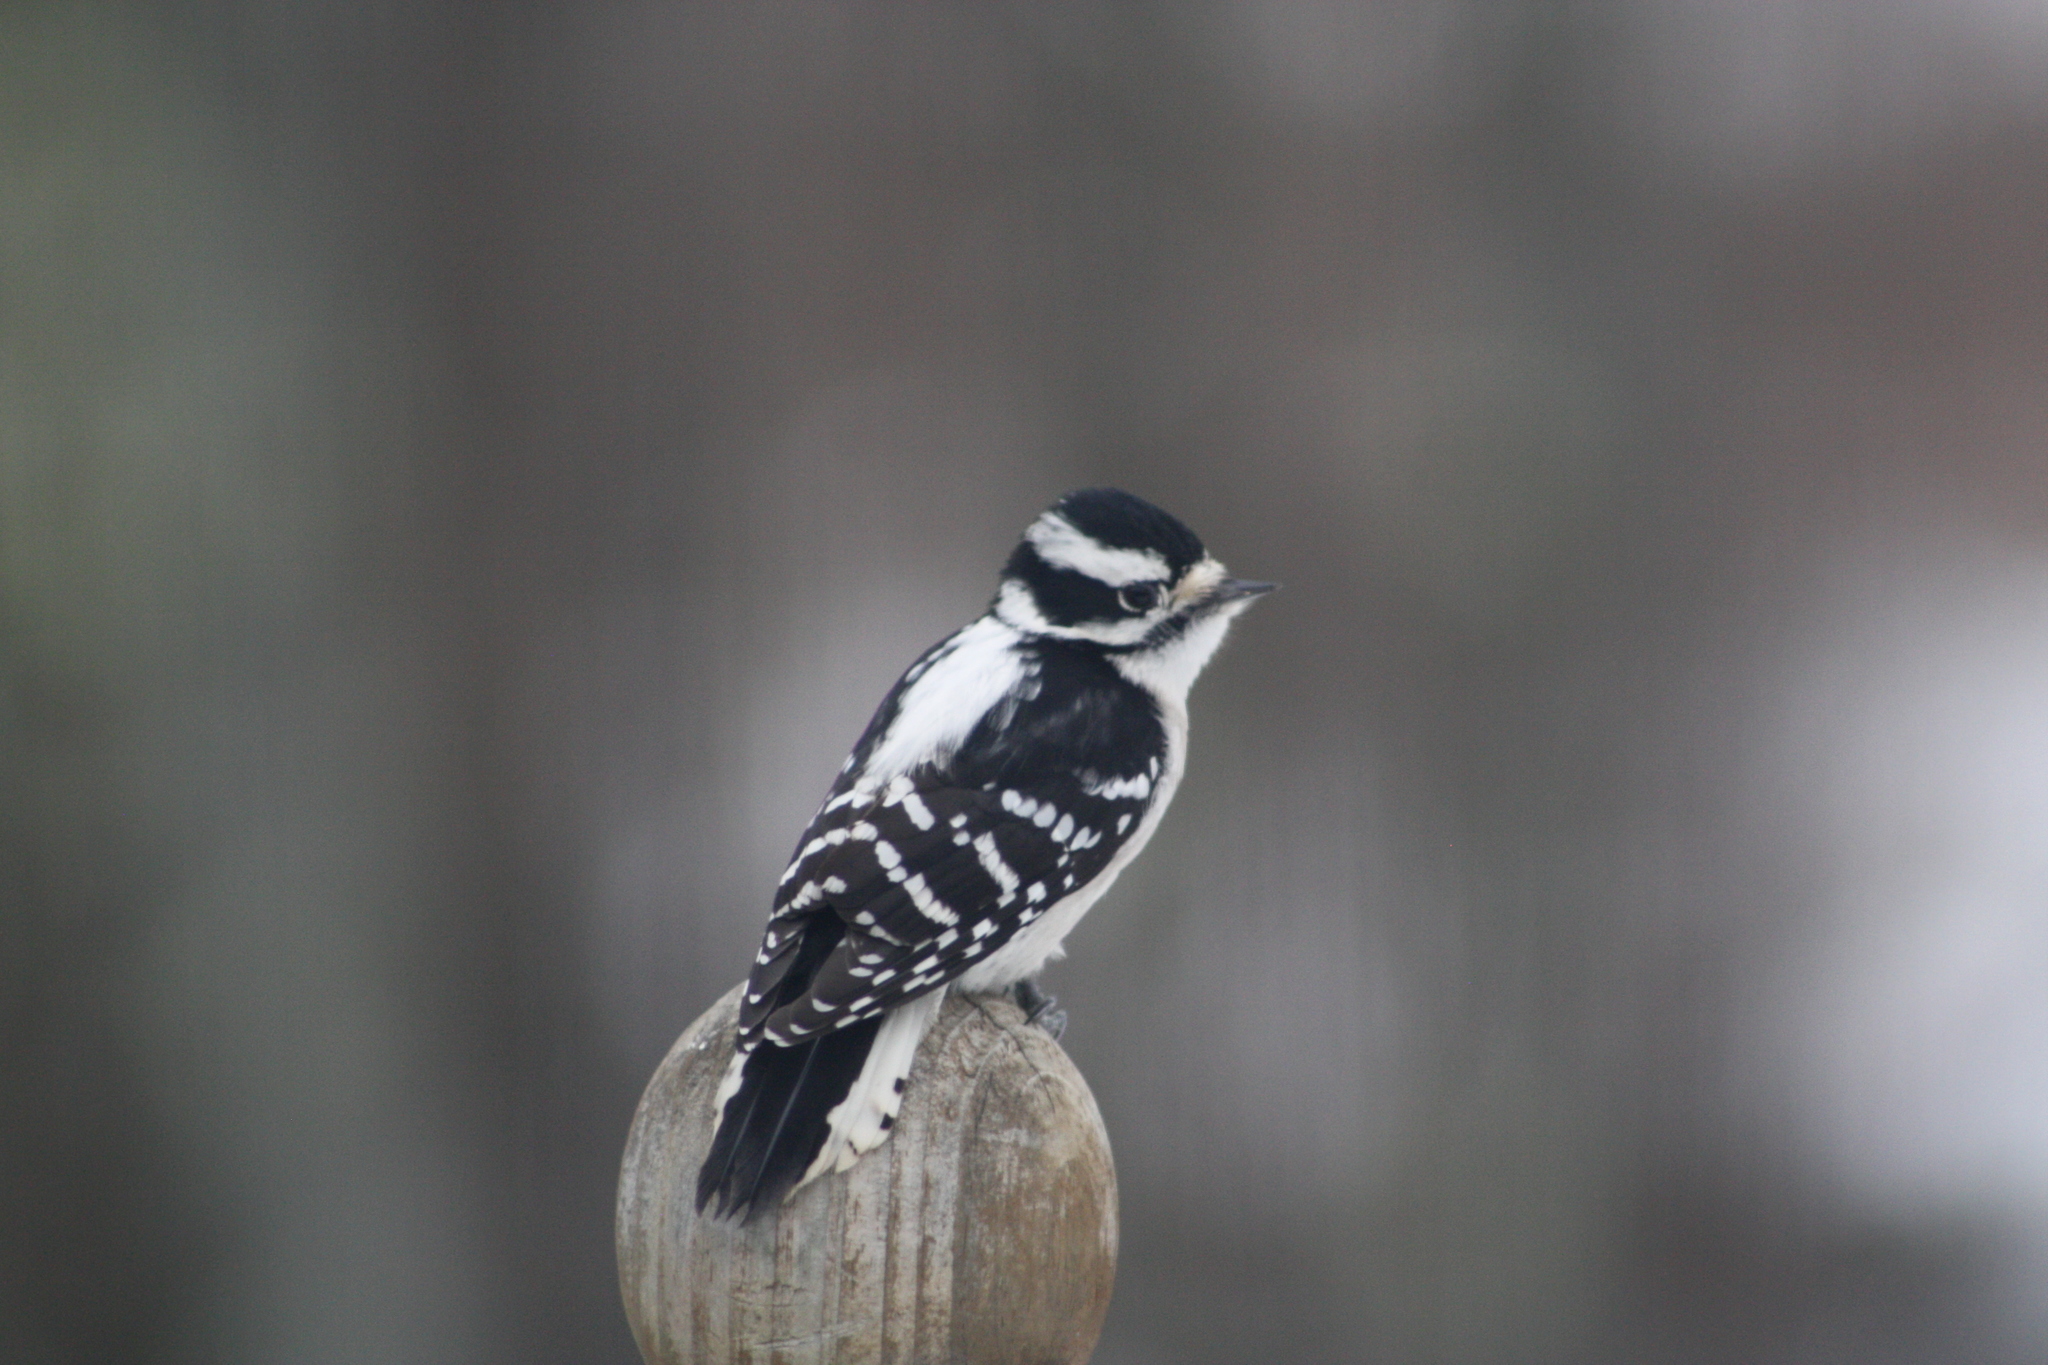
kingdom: Animalia
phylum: Chordata
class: Aves
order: Piciformes
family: Picidae
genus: Dryobates
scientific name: Dryobates pubescens
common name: Downy woodpecker
